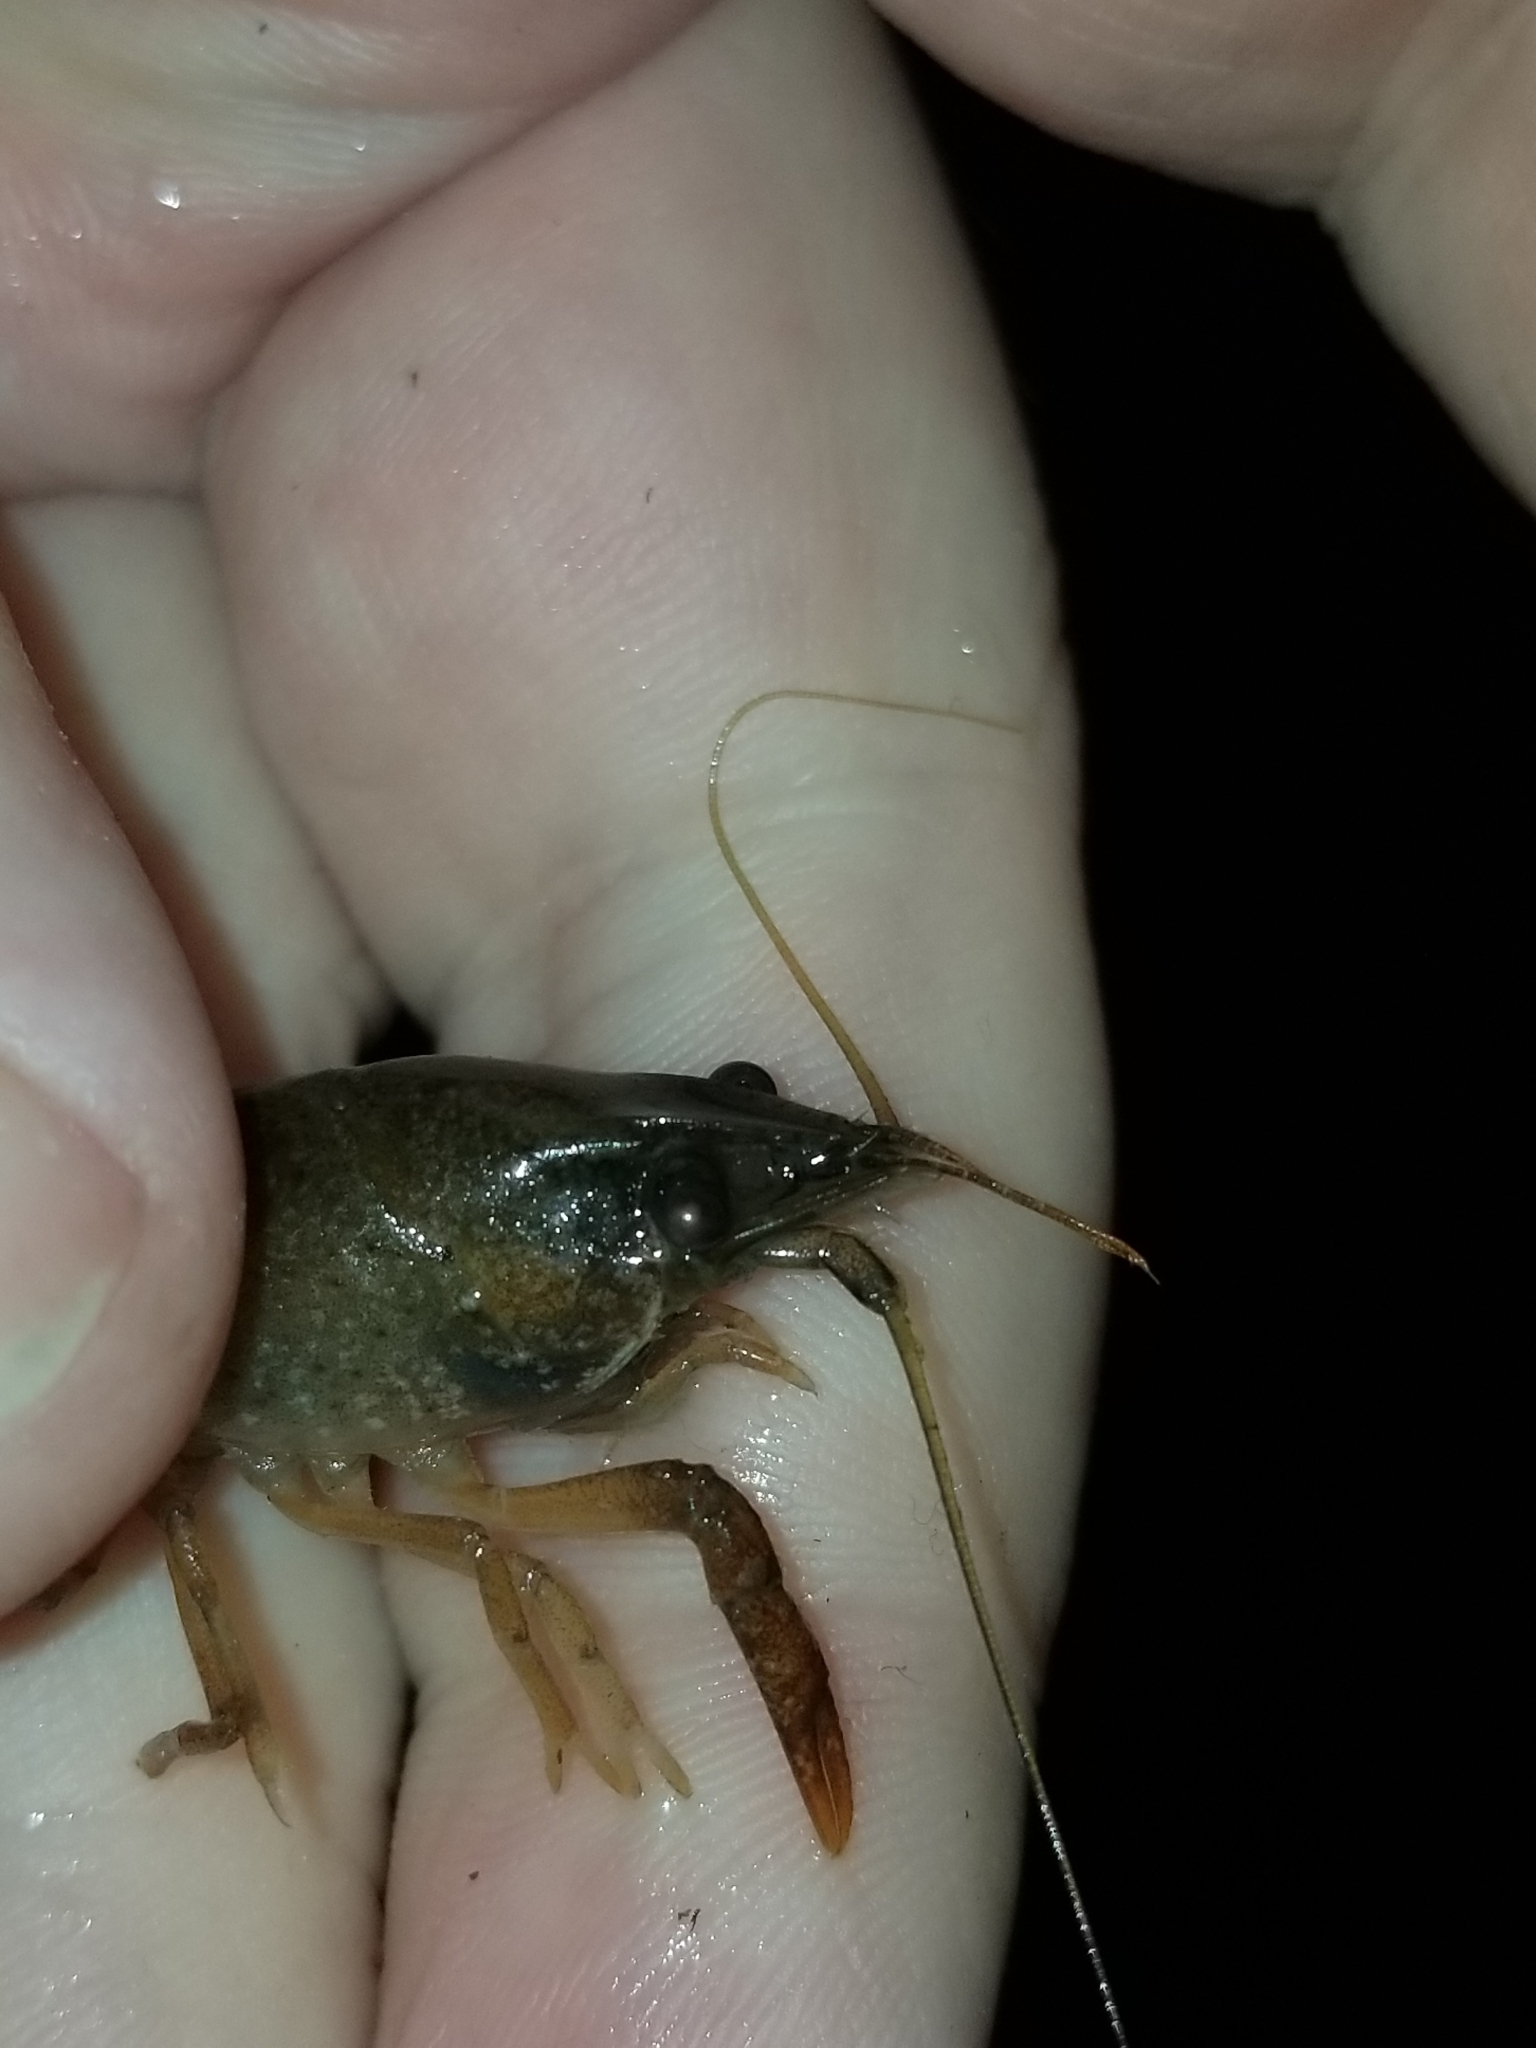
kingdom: Animalia
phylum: Arthropoda
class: Malacostraca
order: Decapoda
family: Cambaridae
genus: Procambarus
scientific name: Procambarus clarkii
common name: Red swamp crayfish
